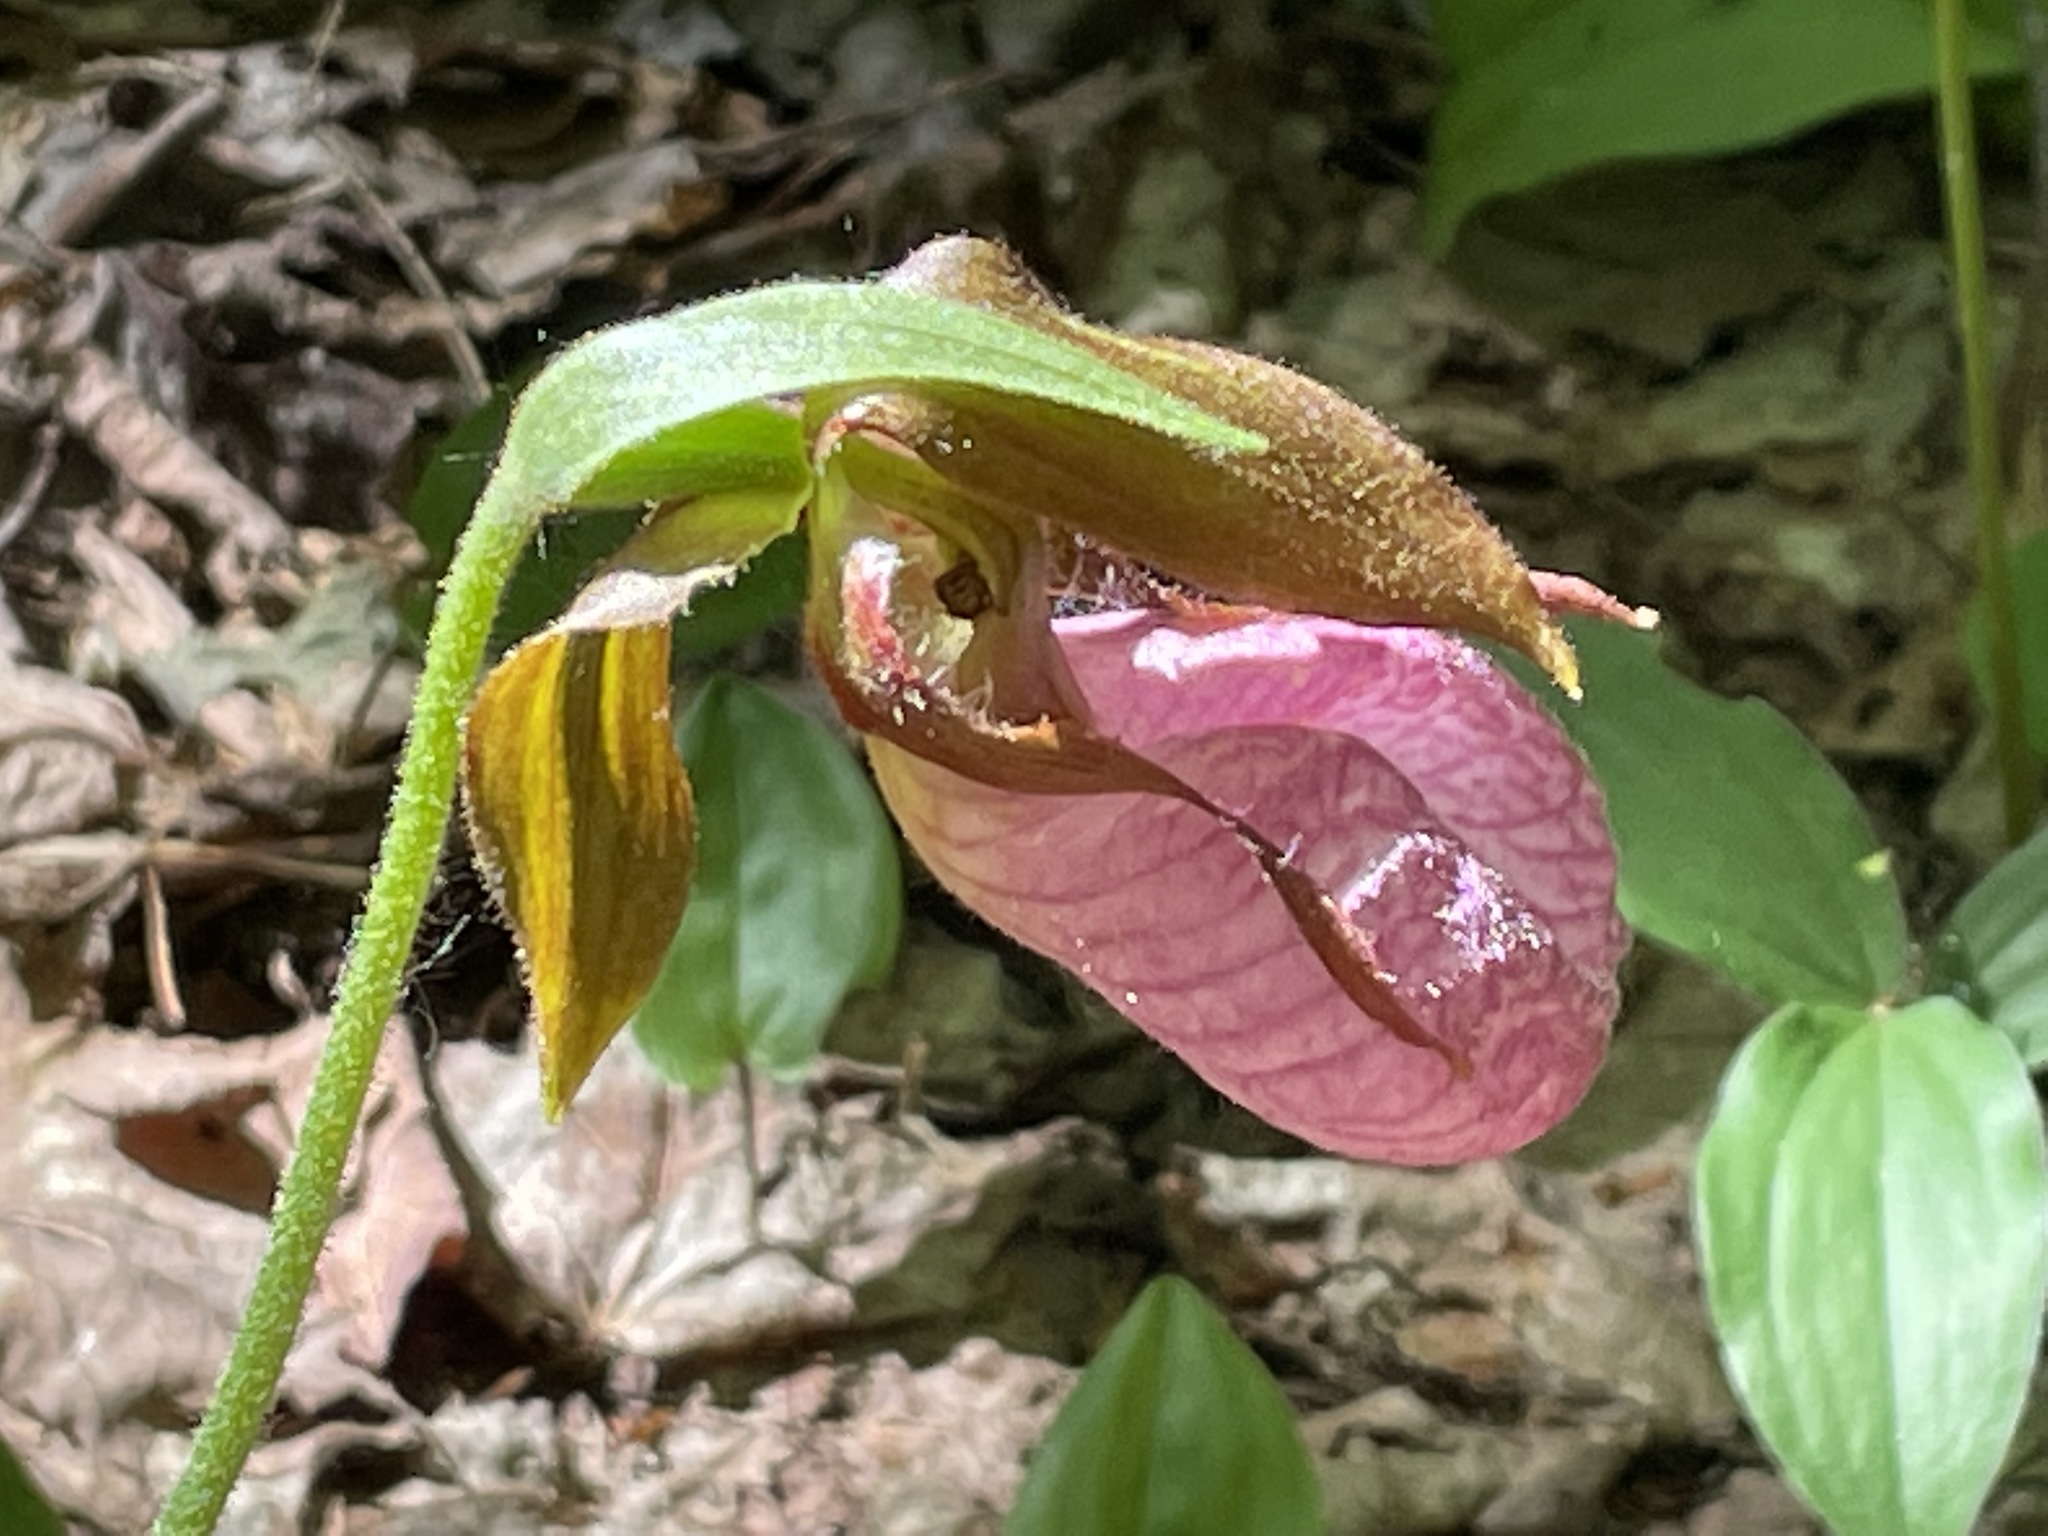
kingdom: Plantae
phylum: Tracheophyta
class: Liliopsida
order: Asparagales
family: Orchidaceae
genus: Cypripedium
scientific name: Cypripedium acaule
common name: Pink lady's-slipper
